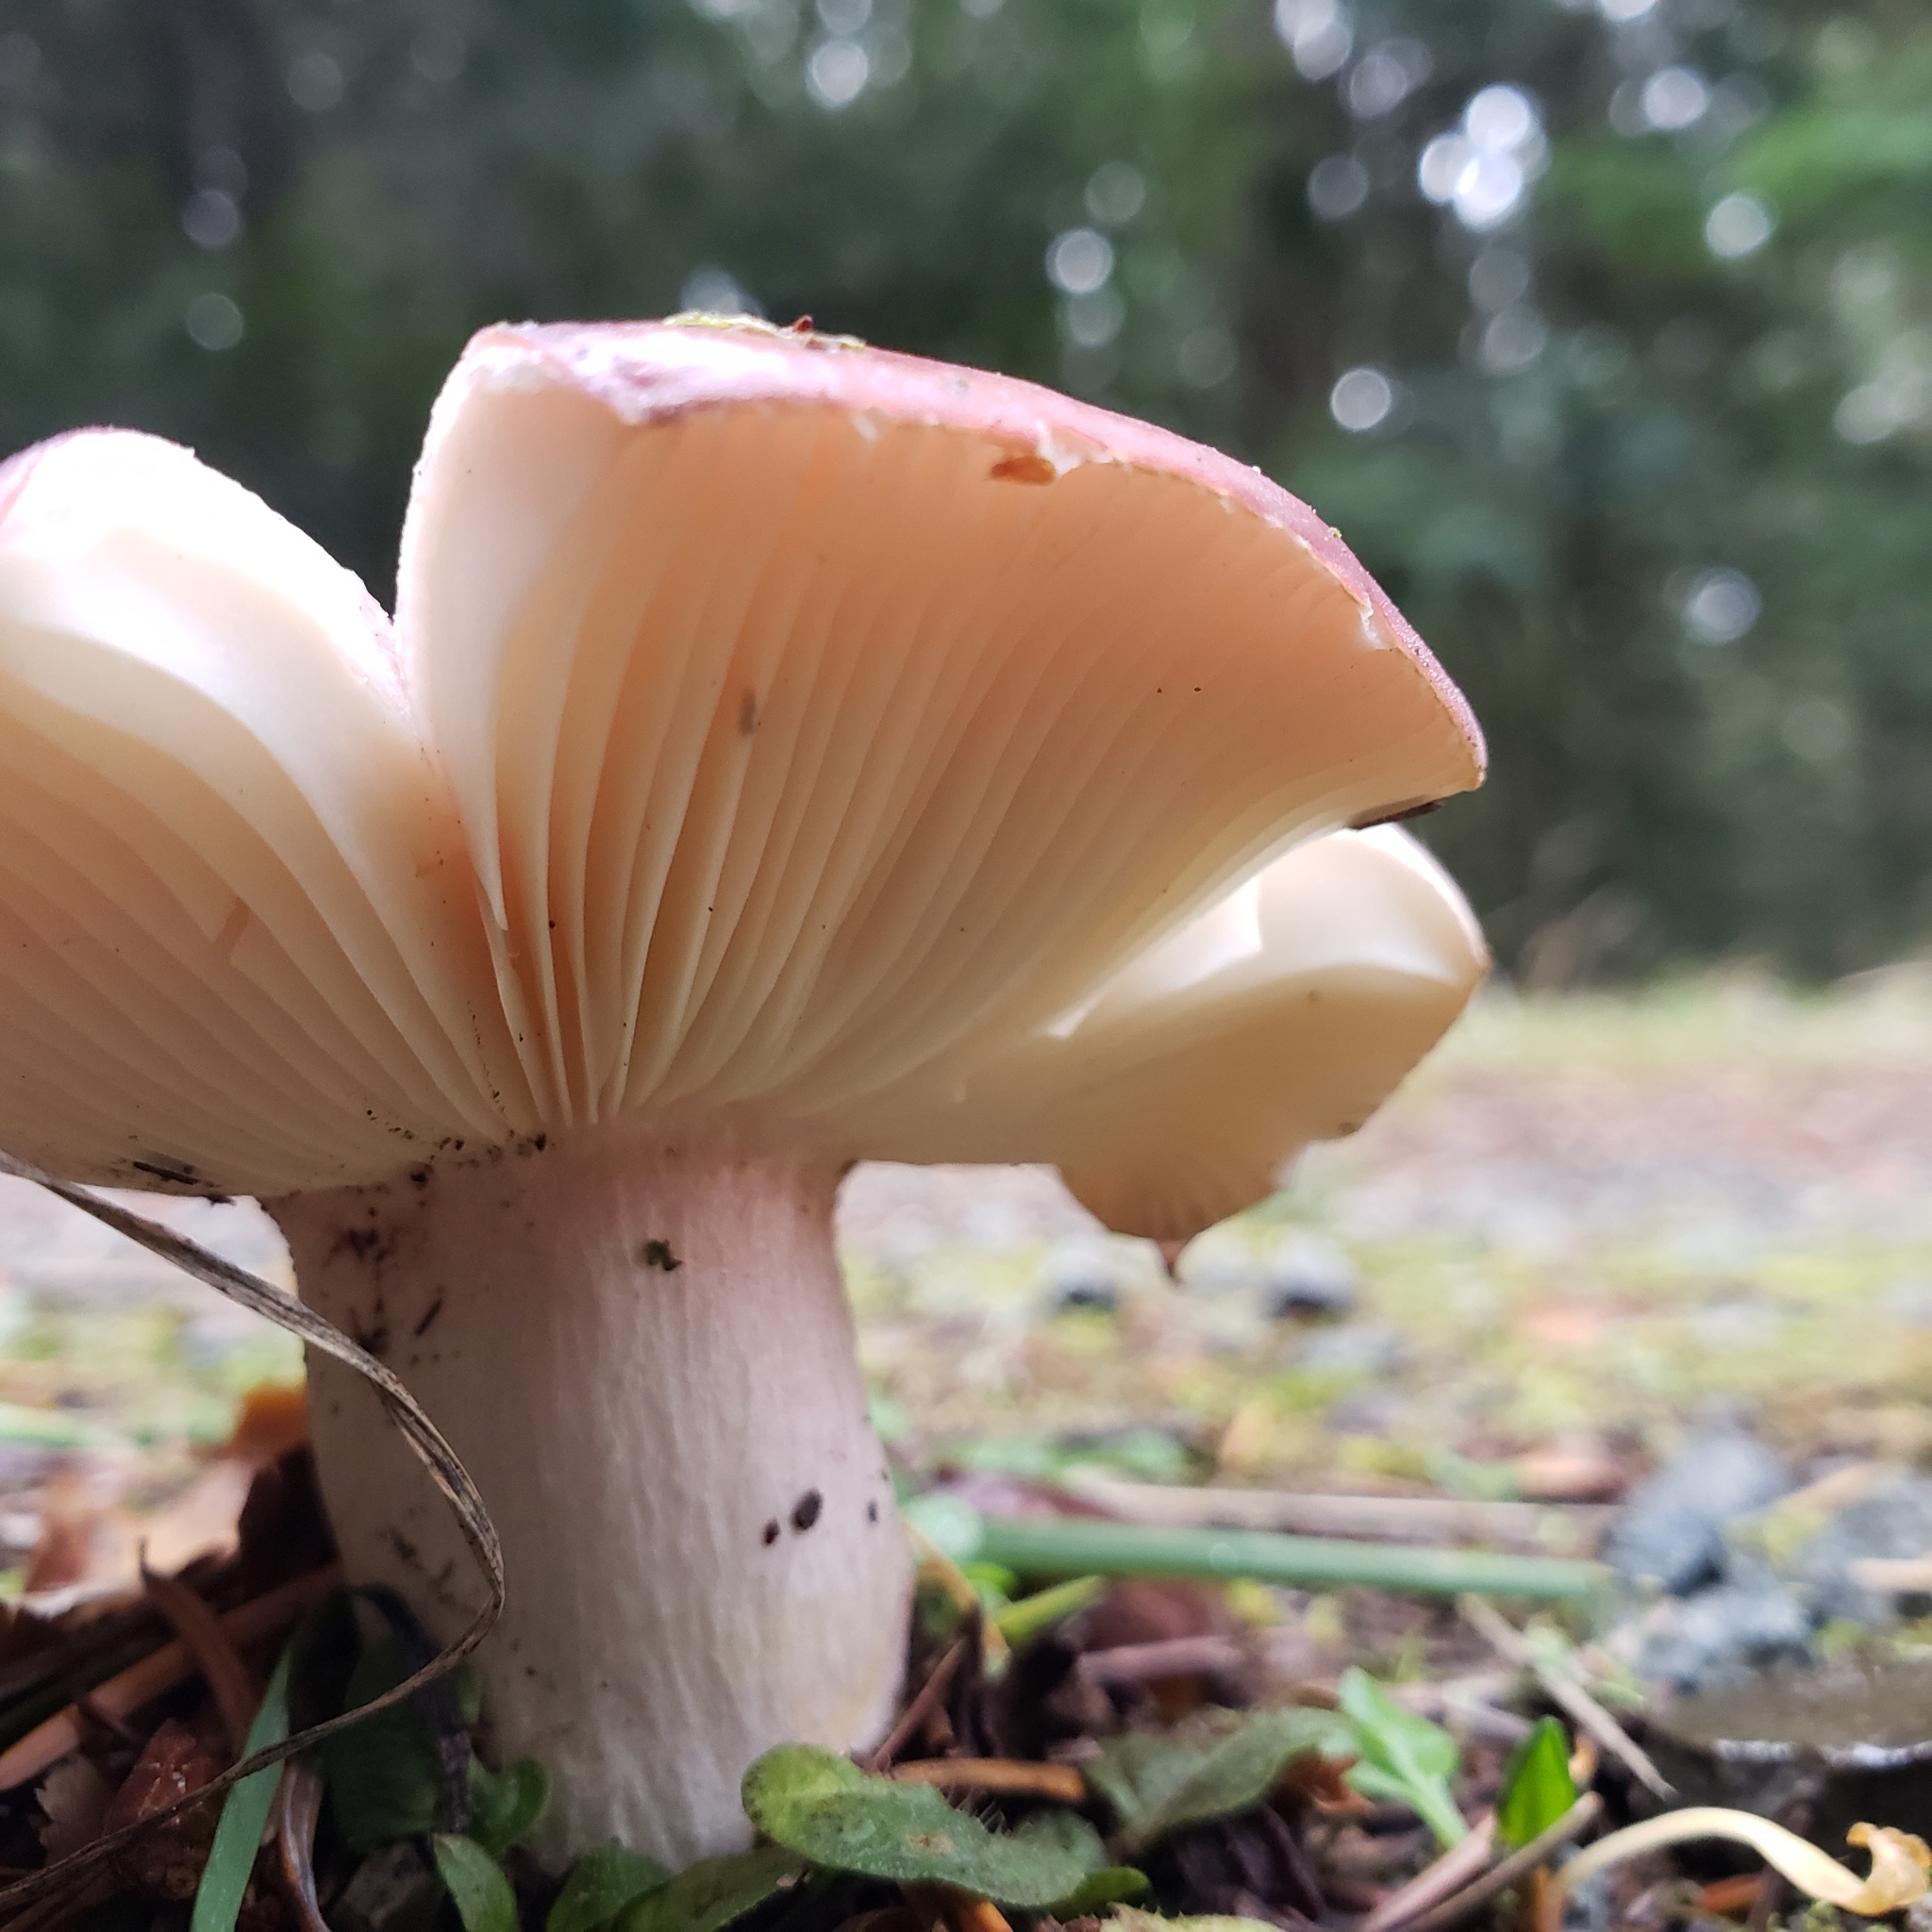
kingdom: Fungi
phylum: Basidiomycota
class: Agaricomycetes
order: Russulales
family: Russulaceae
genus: Russula
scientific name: Russula xerampelina
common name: Crab brittlegill
